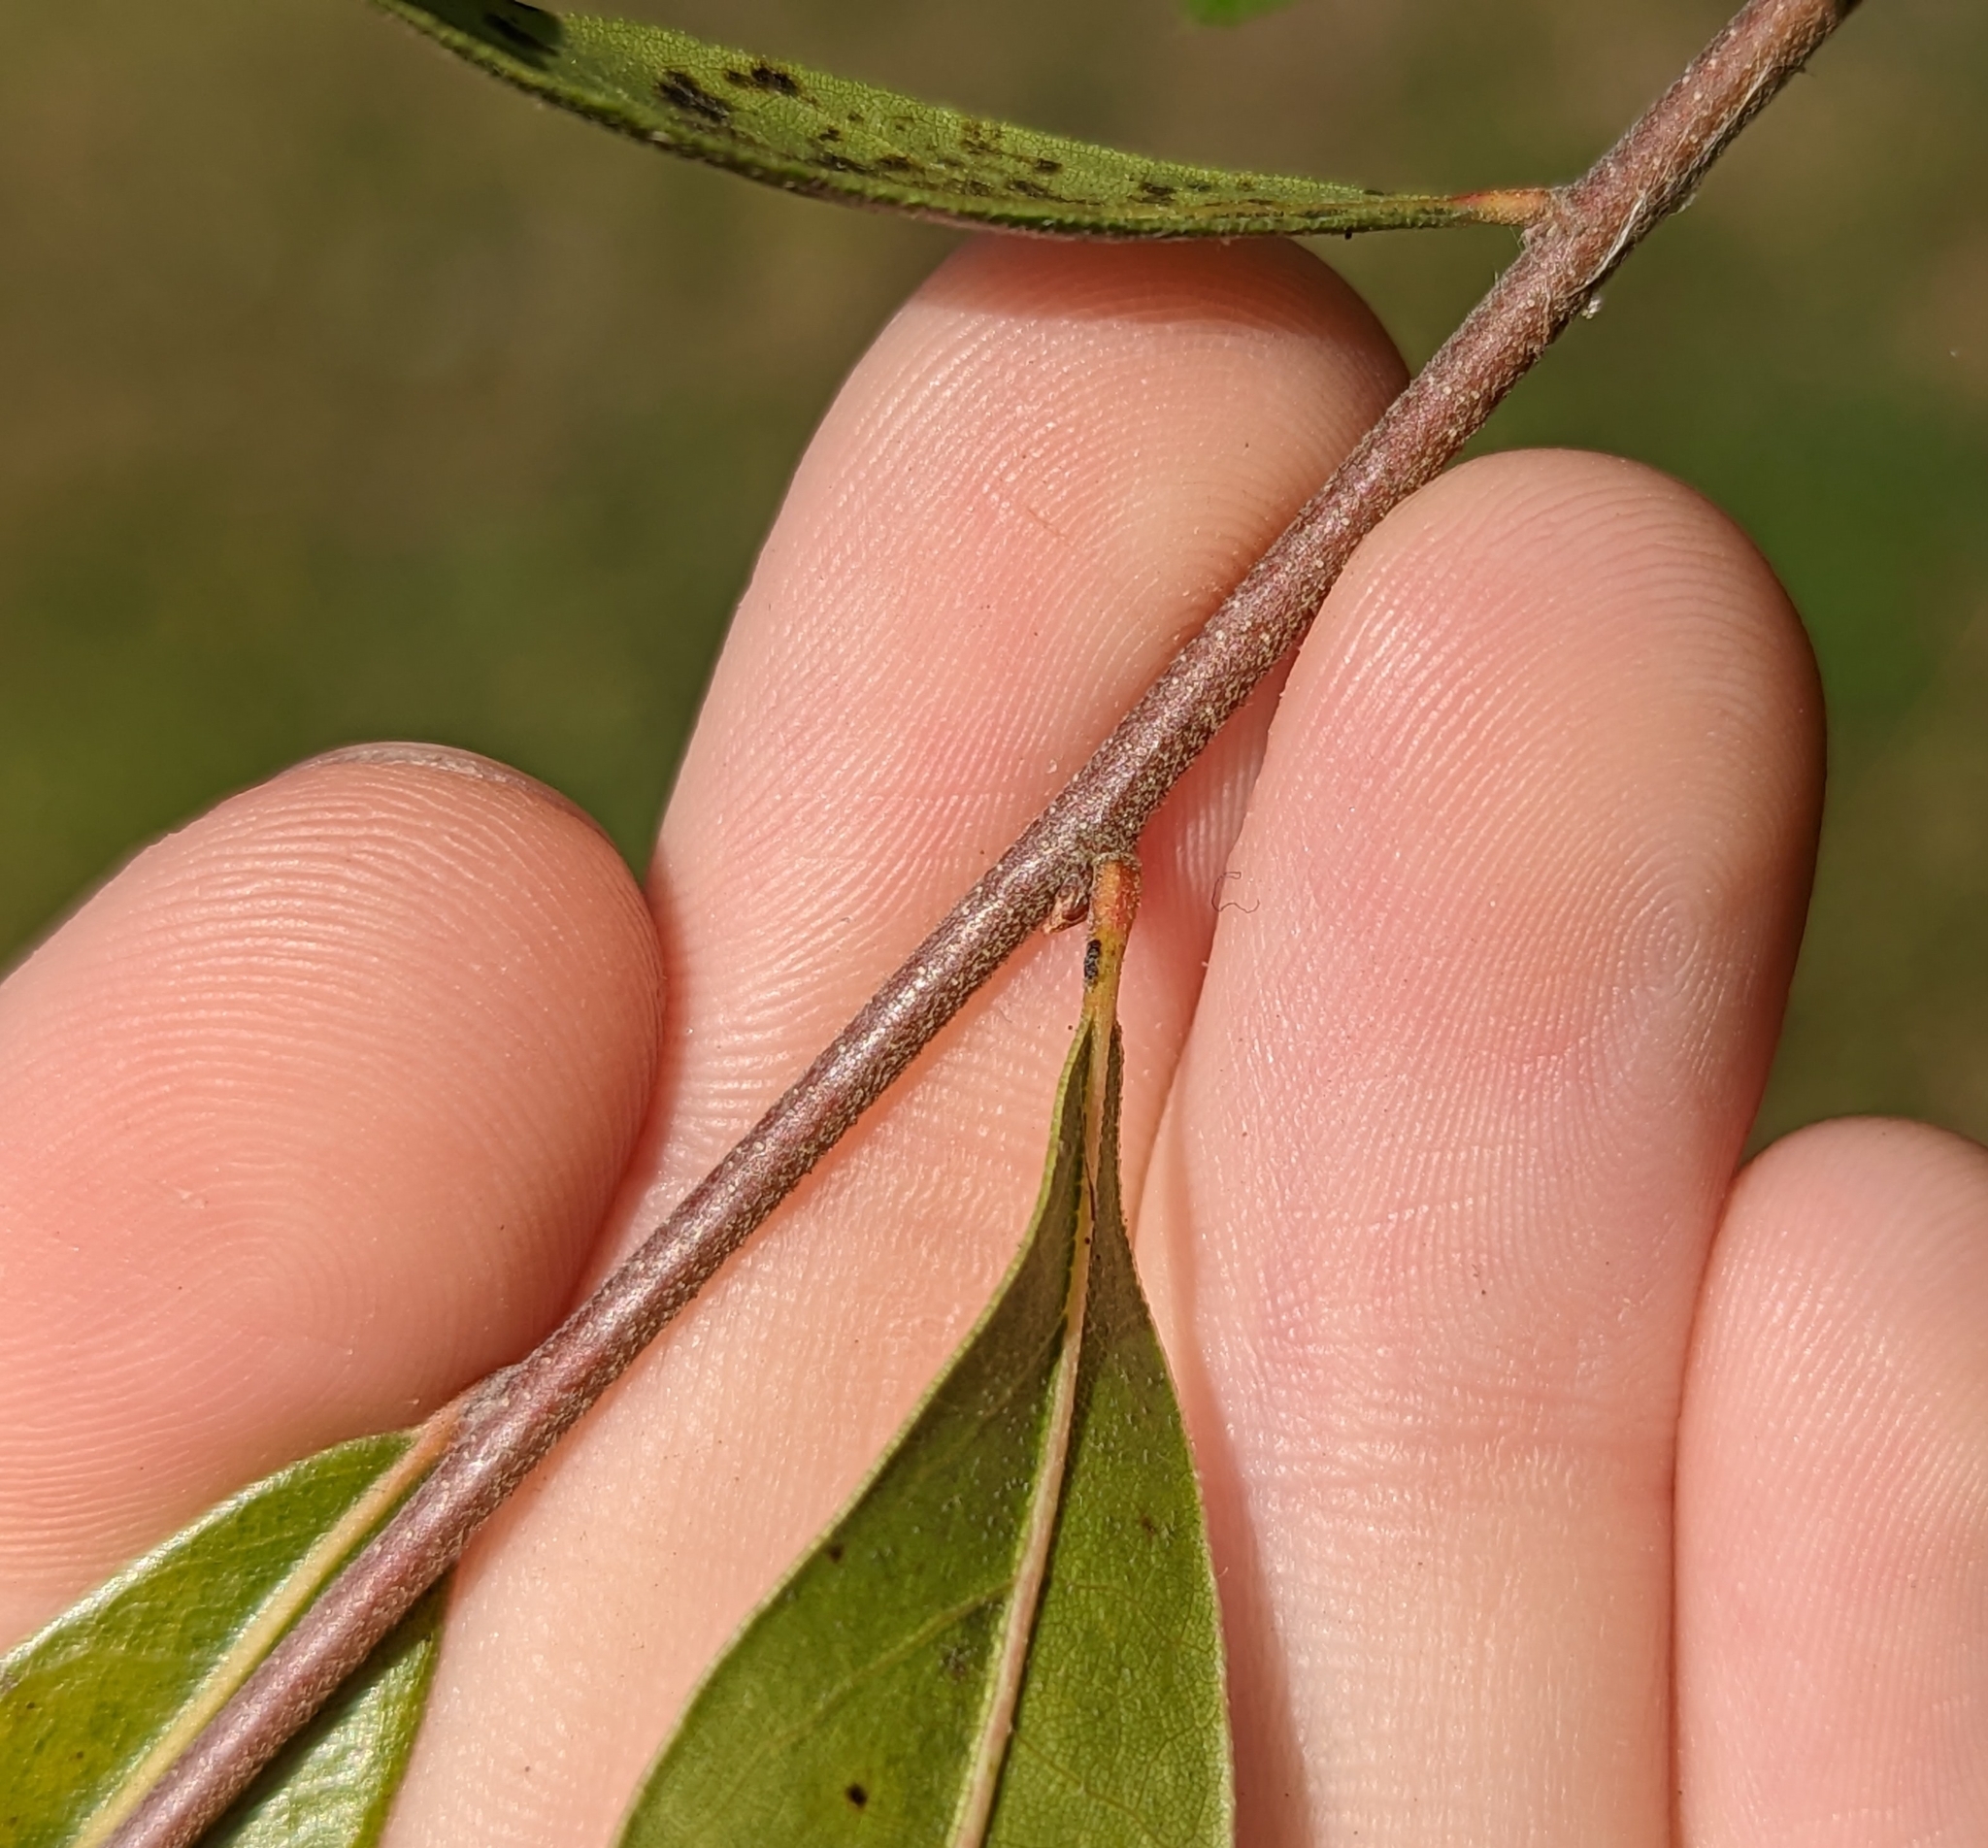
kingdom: Plantae
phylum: Tracheophyta
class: Magnoliopsida
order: Fagales
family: Fagaceae
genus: Quercus
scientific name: Quercus hemisphaerica
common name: Darlington oak
